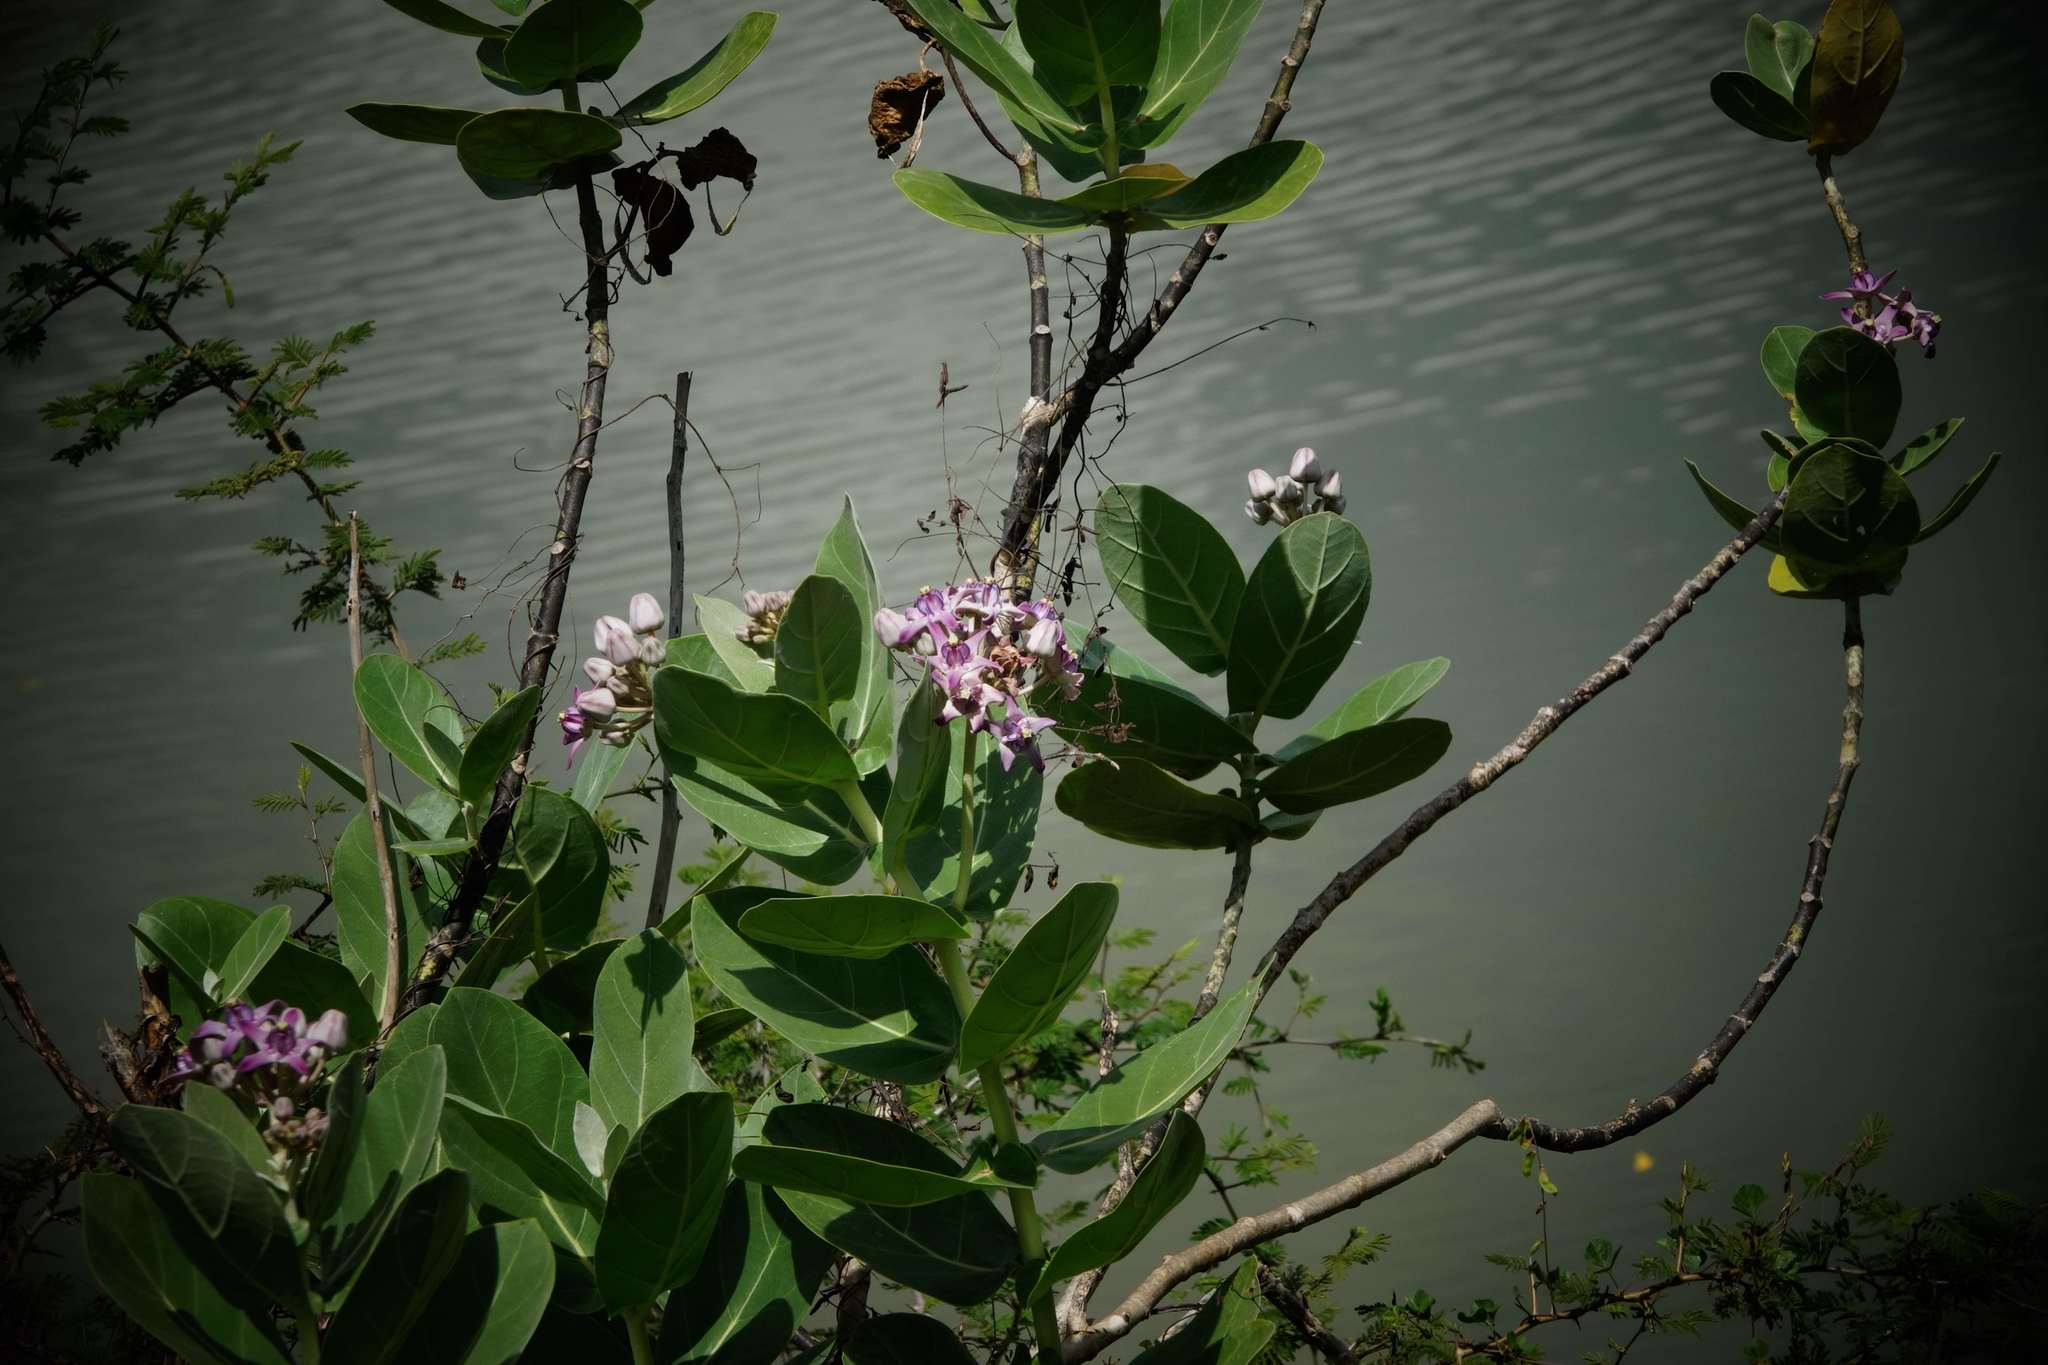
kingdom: Plantae
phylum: Tracheophyta
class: Magnoliopsida
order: Gentianales
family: Apocynaceae
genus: Calotropis
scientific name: Calotropis gigantea
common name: Crown flower
